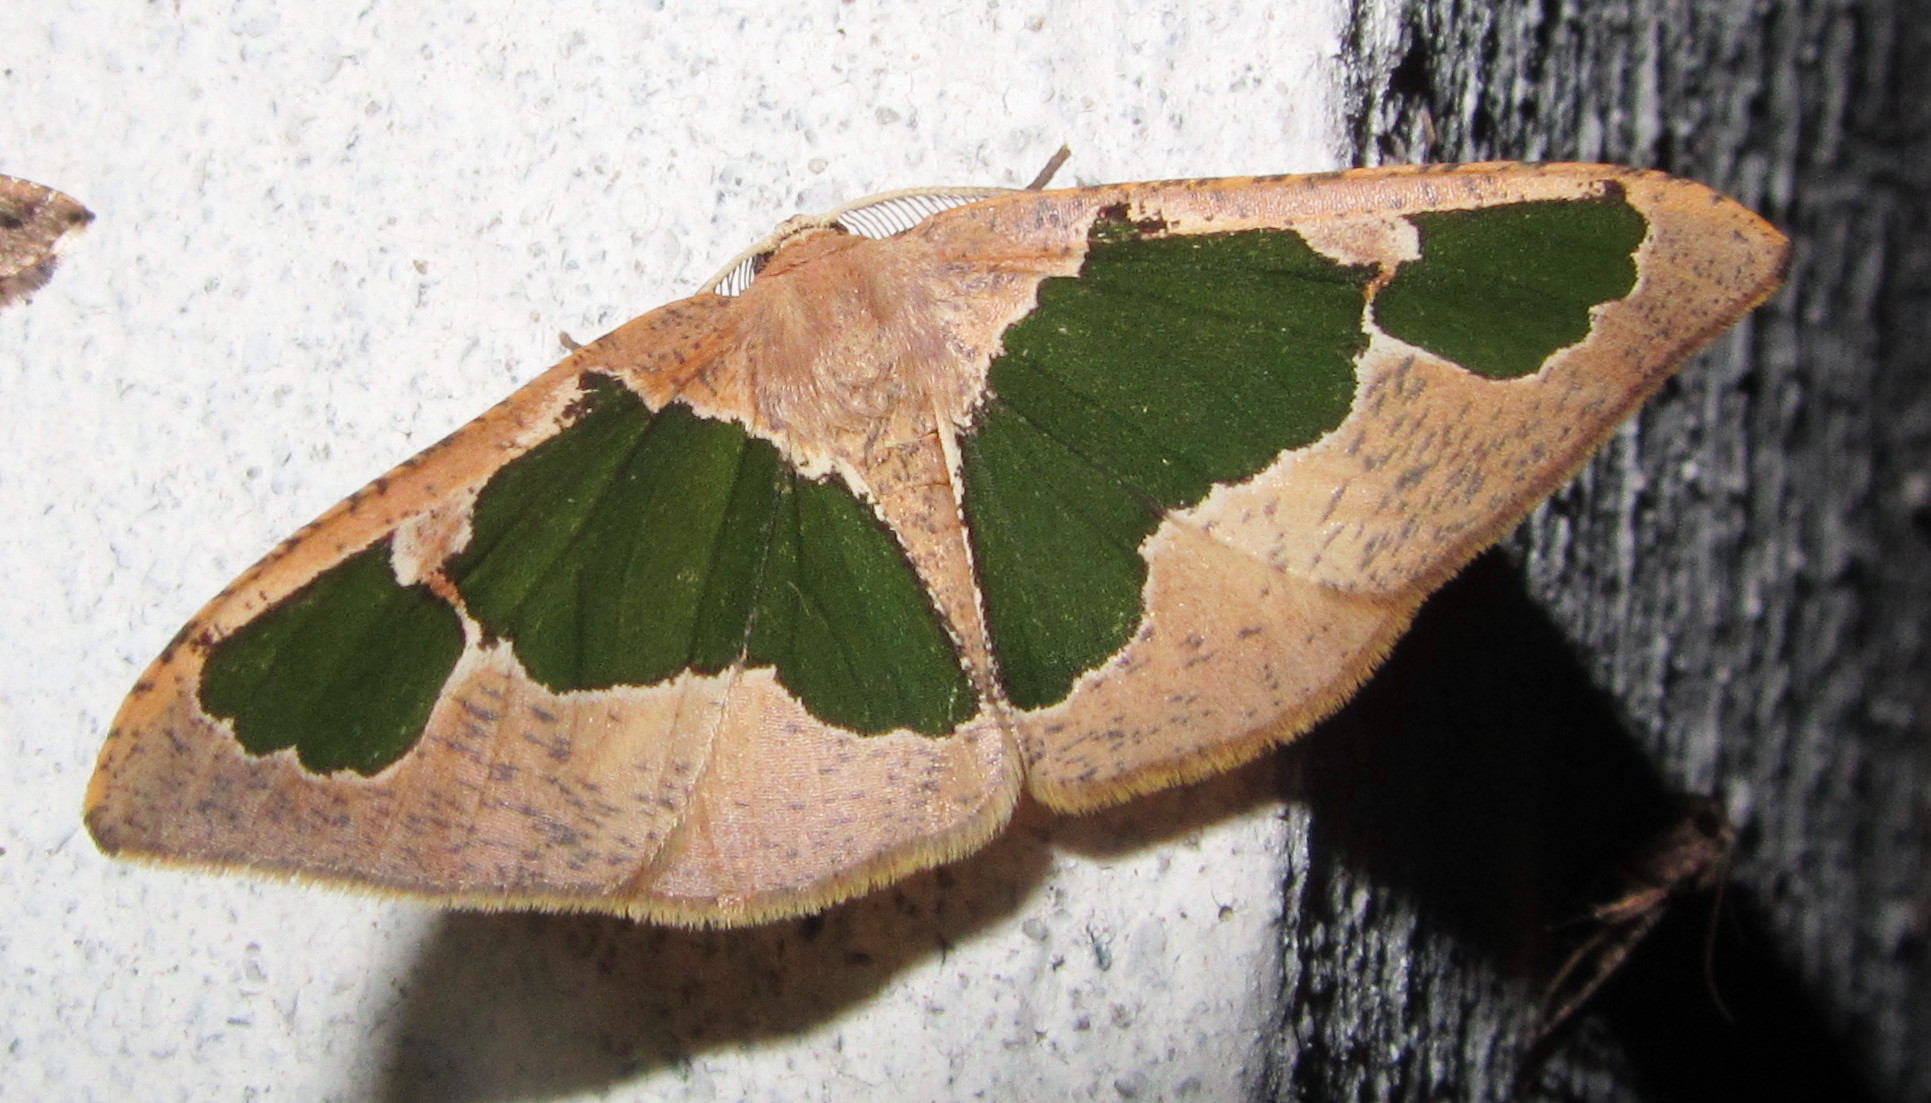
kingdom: Animalia
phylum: Arthropoda
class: Insecta
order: Lepidoptera
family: Geometridae
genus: Celenna
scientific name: Celenna festivaria
